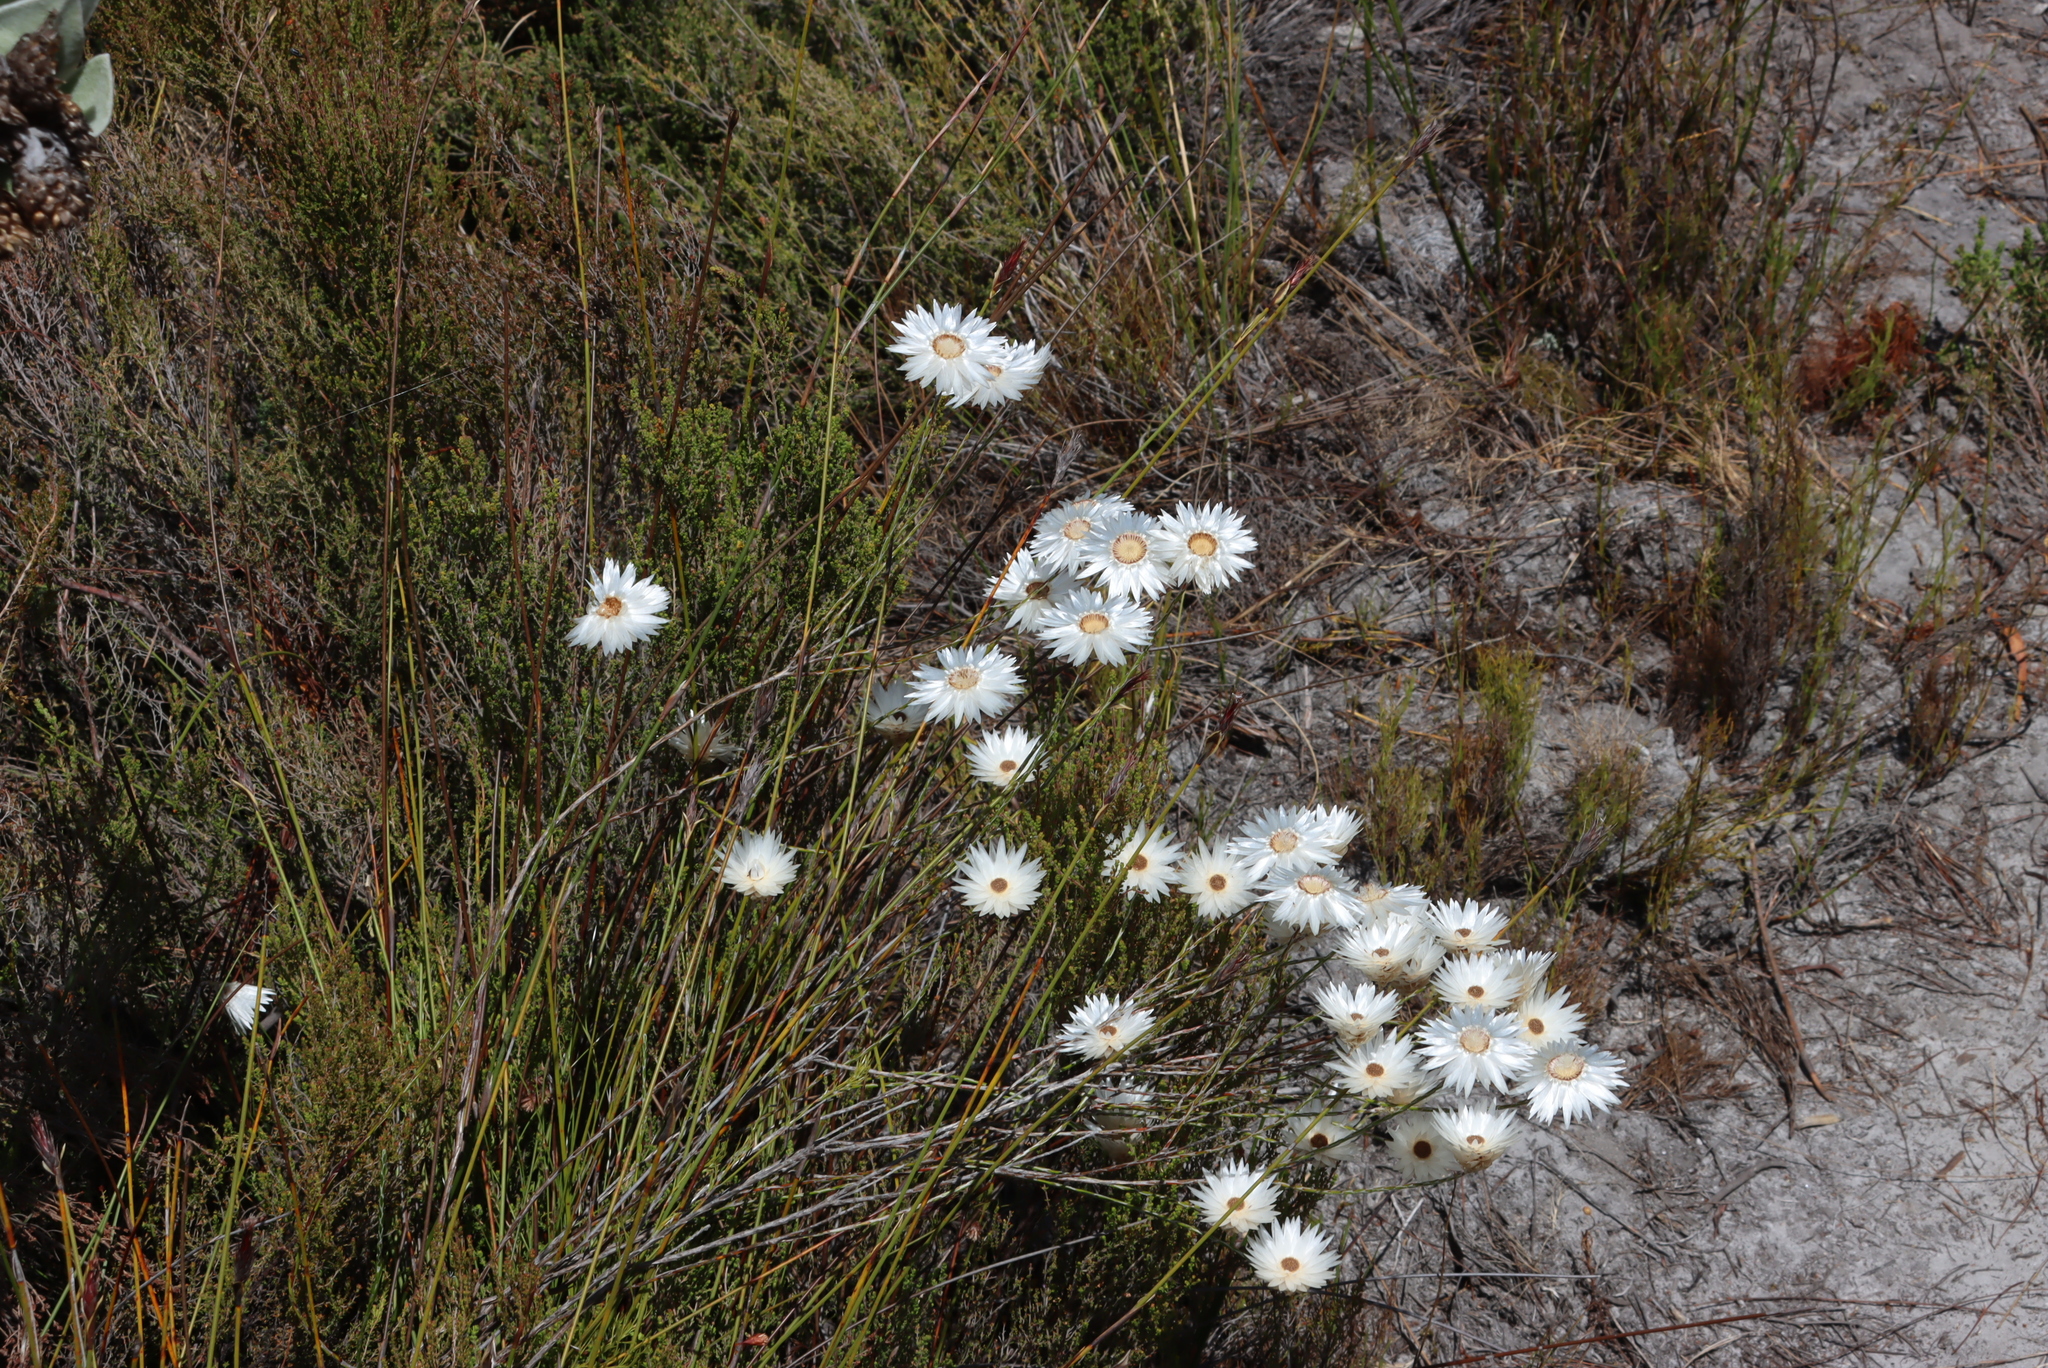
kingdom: Plantae
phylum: Tracheophyta
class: Magnoliopsida
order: Asterales
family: Asteraceae
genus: Edmondia
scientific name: Edmondia sesamoides
